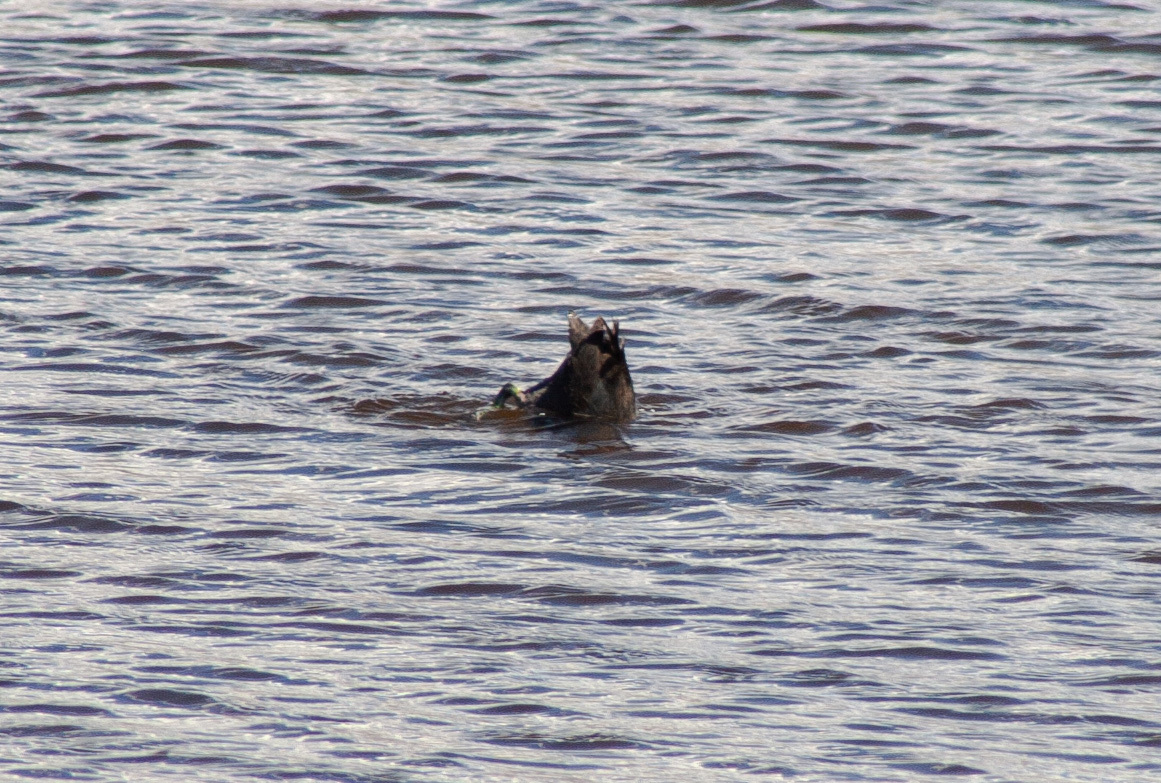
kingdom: Animalia
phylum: Chordata
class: Aves
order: Gruiformes
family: Rallidae
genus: Fulica
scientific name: Fulica americana
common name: American coot
